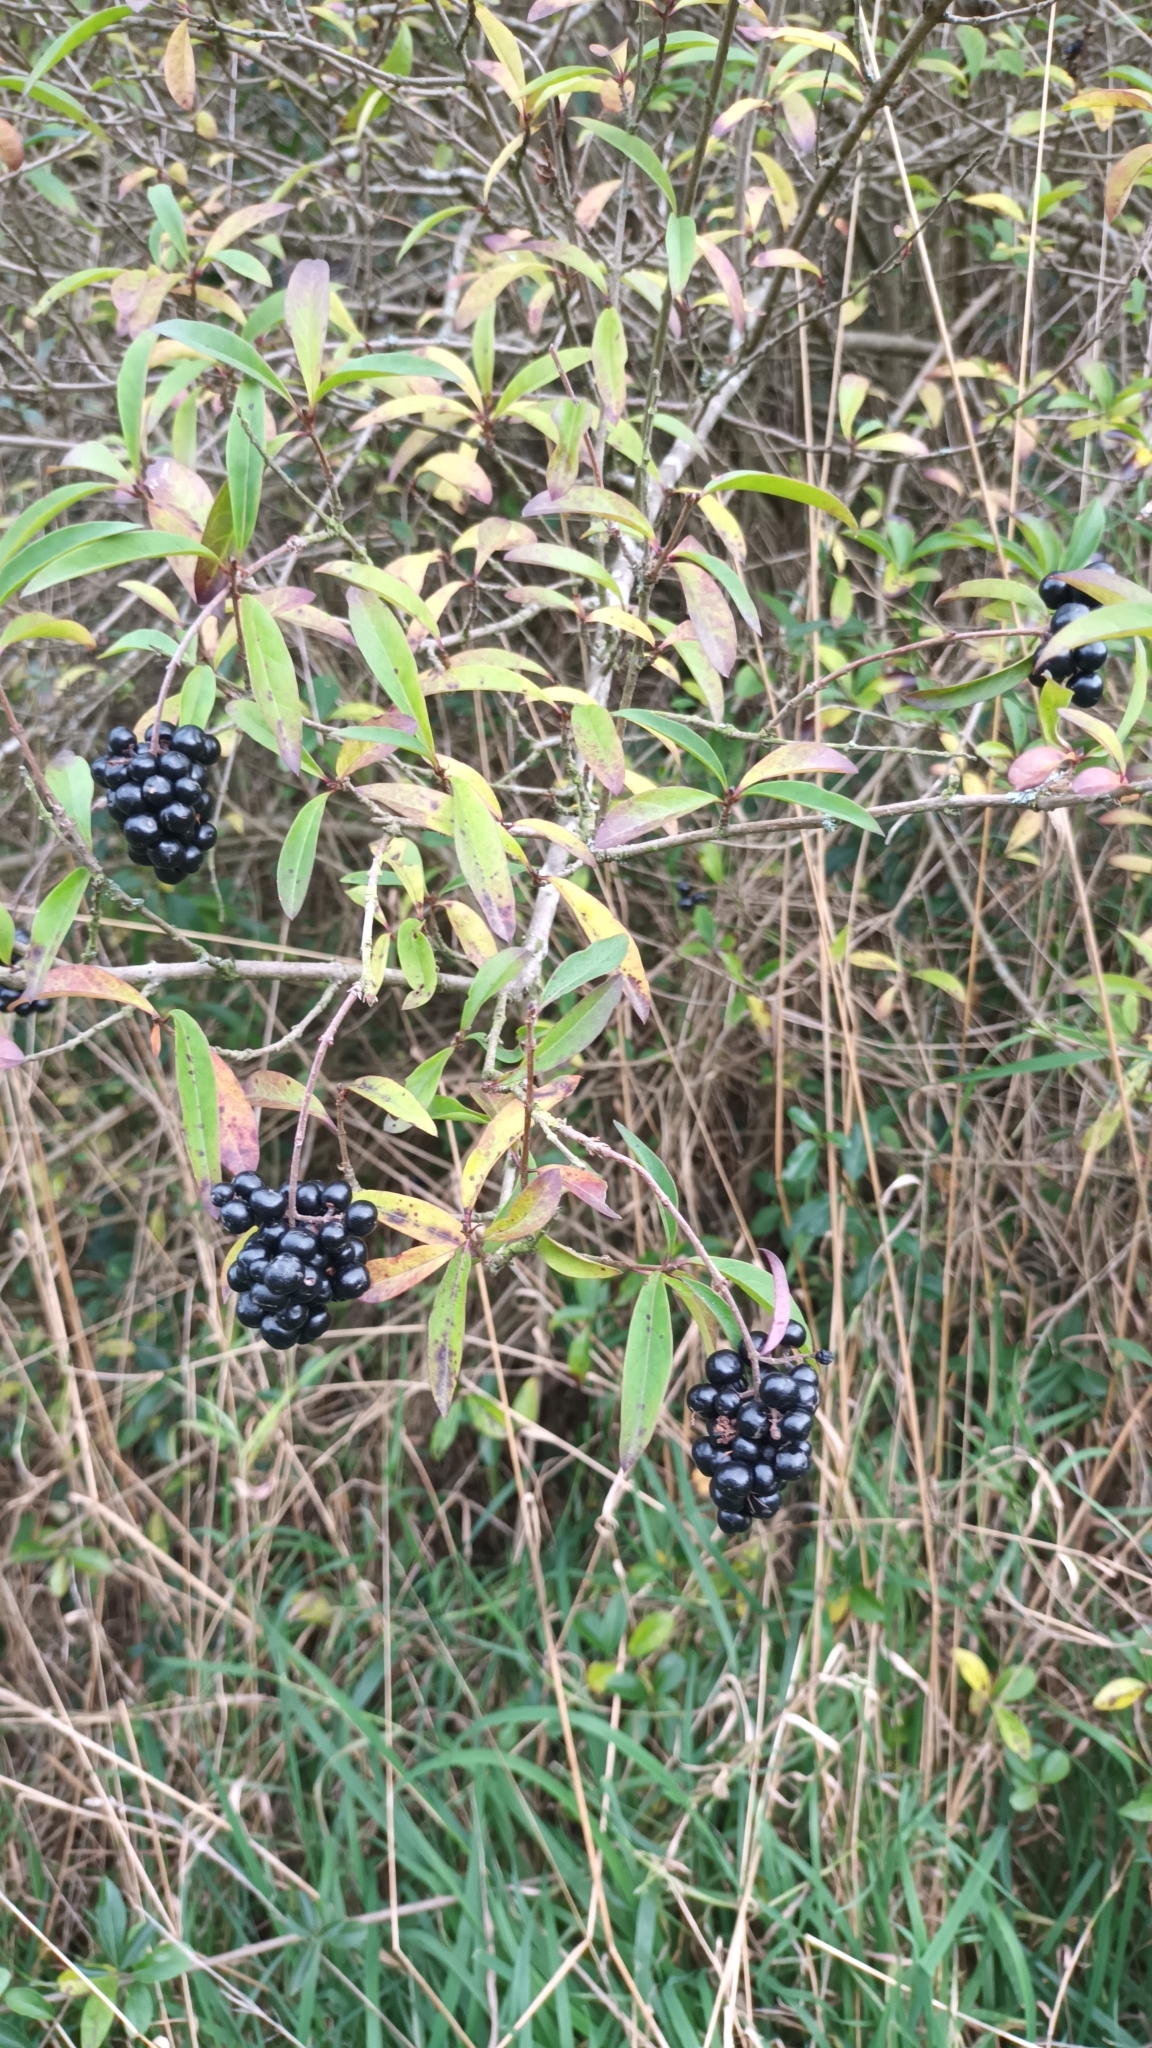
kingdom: Plantae
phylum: Tracheophyta
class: Magnoliopsida
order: Lamiales
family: Oleaceae
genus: Ligustrum
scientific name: Ligustrum vulgare
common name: Wild privet
